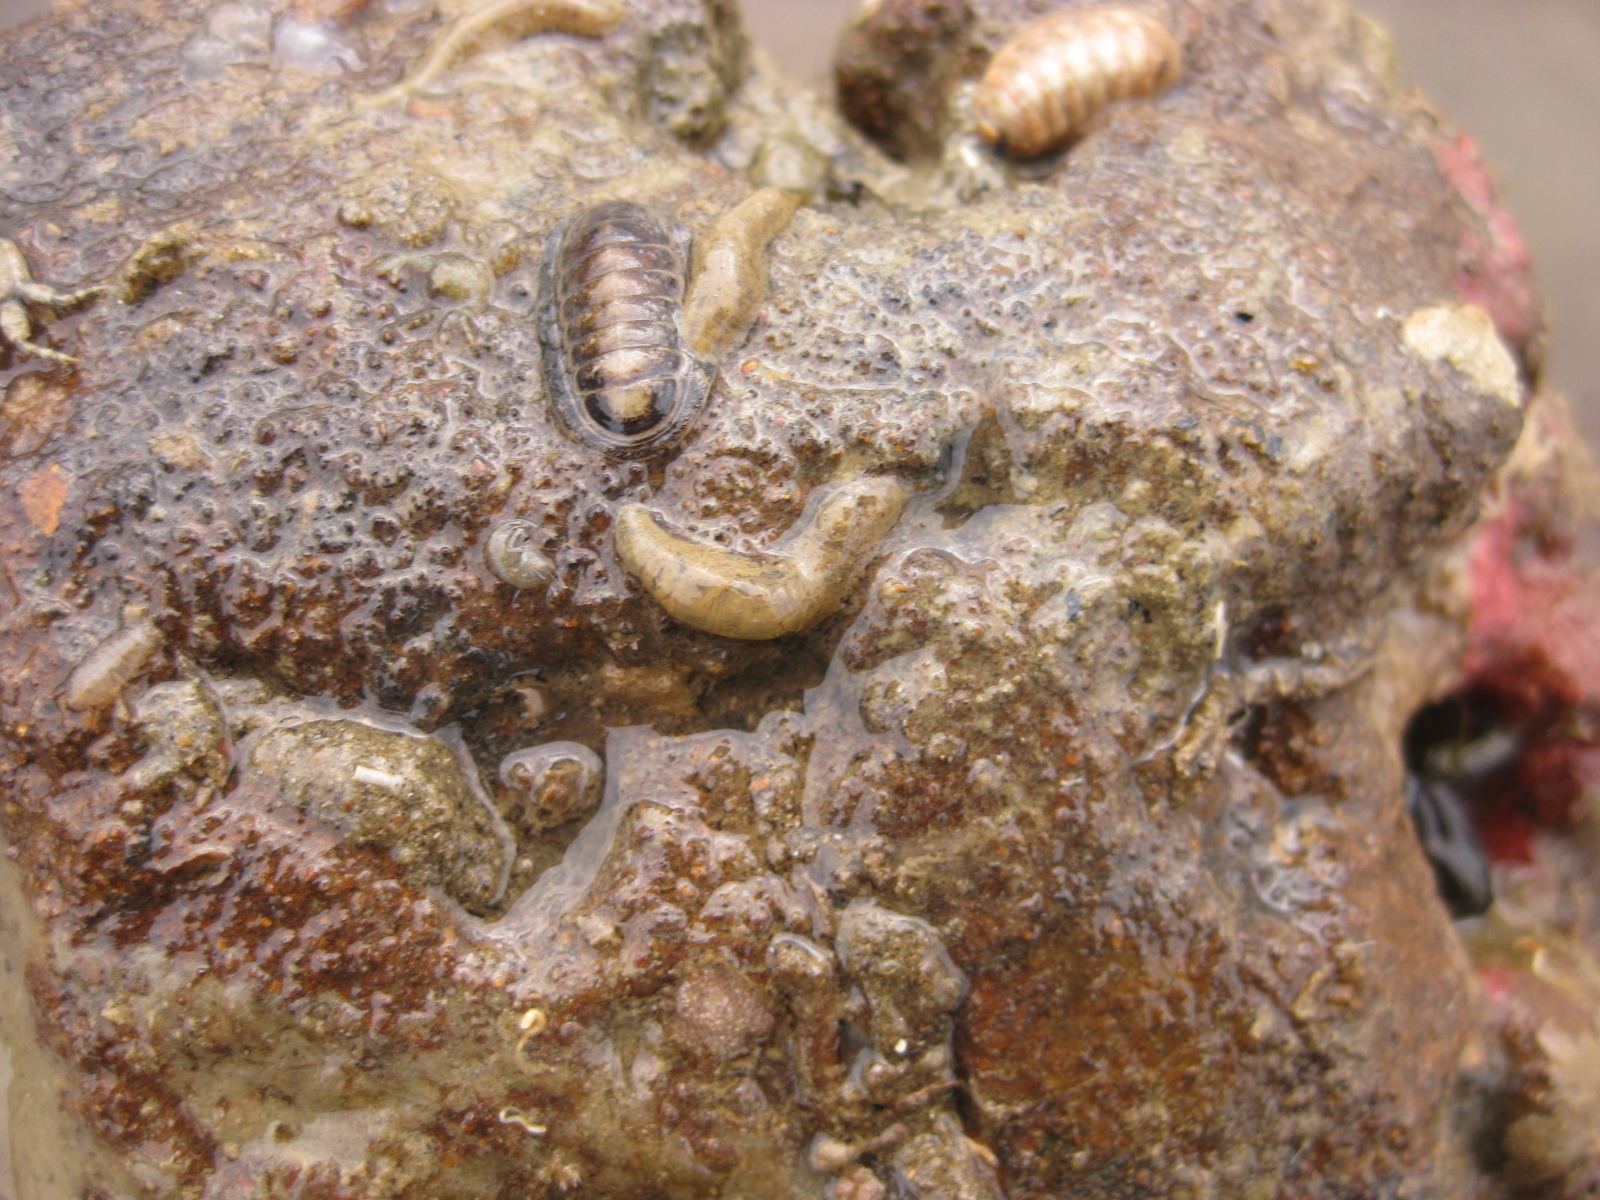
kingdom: Animalia
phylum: Annelida
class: Polychaeta
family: Flabelligeridae
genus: Flabelligera
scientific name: Flabelligera bicolor
